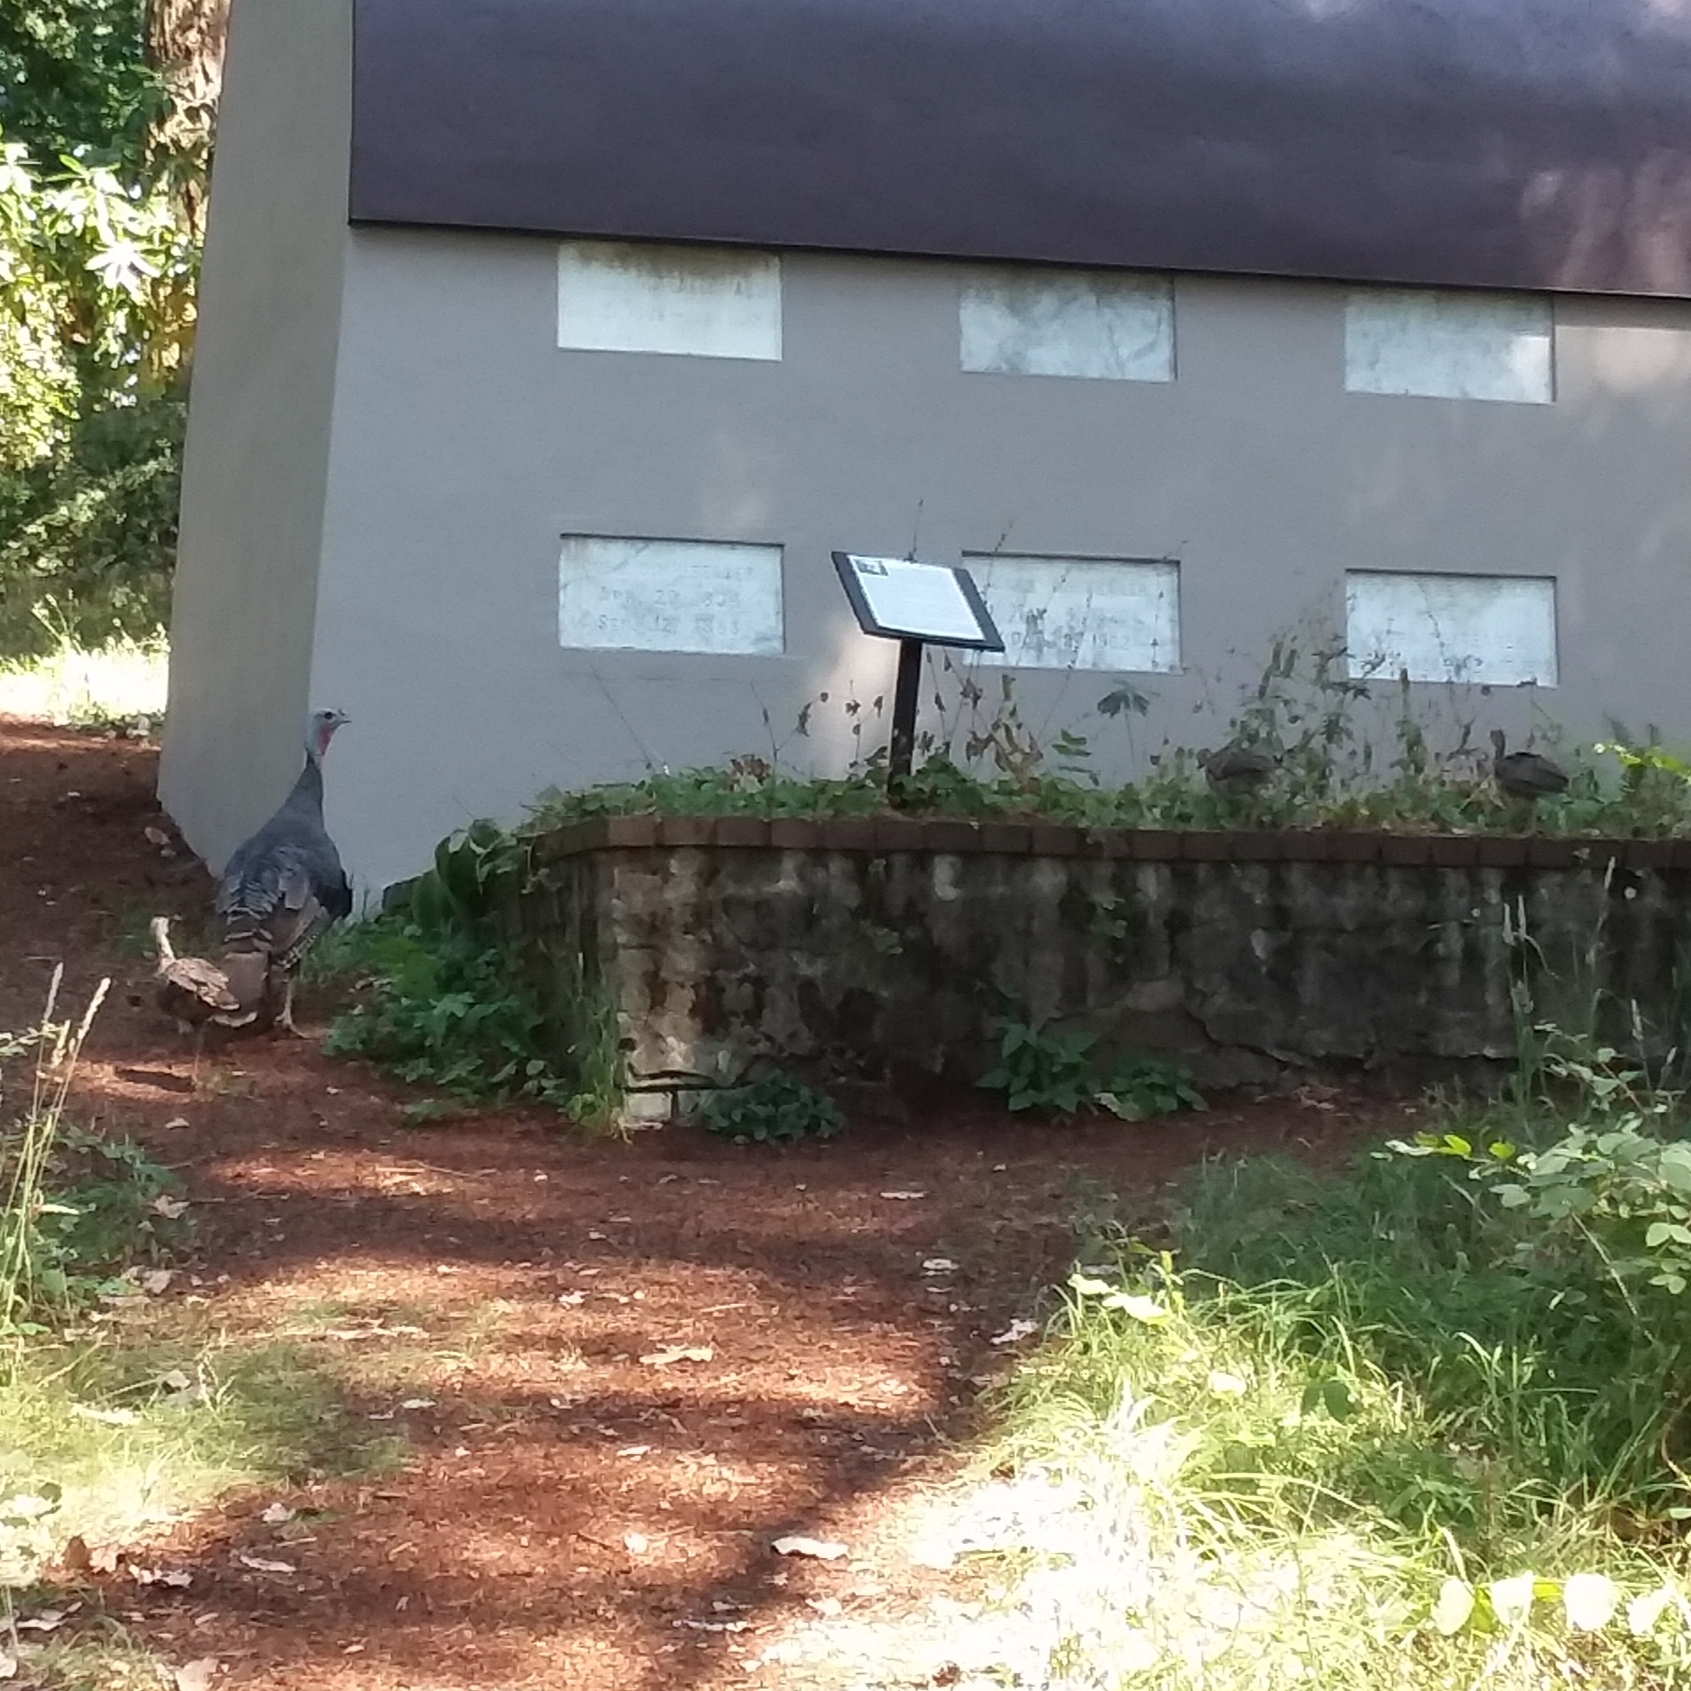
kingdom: Animalia
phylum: Chordata
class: Aves
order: Galliformes
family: Phasianidae
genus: Meleagris
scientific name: Meleagris gallopavo
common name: Wild turkey
